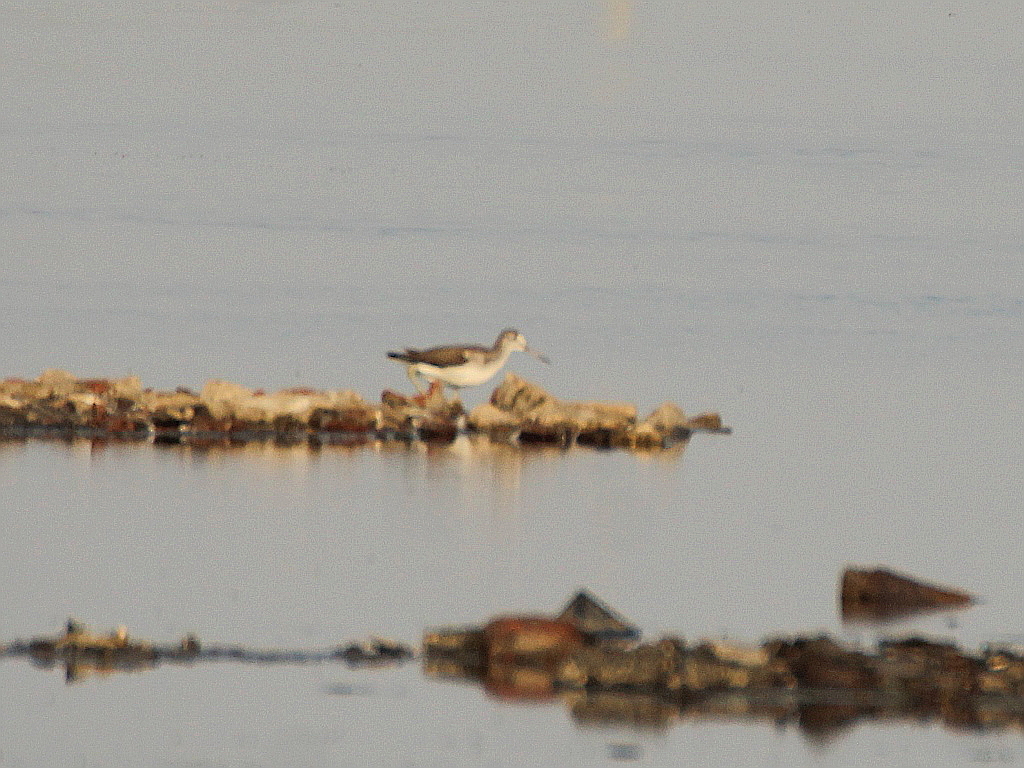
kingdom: Animalia
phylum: Chordata
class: Aves
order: Charadriiformes
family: Scolopacidae
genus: Tringa
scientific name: Tringa nebularia
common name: Common greenshank
